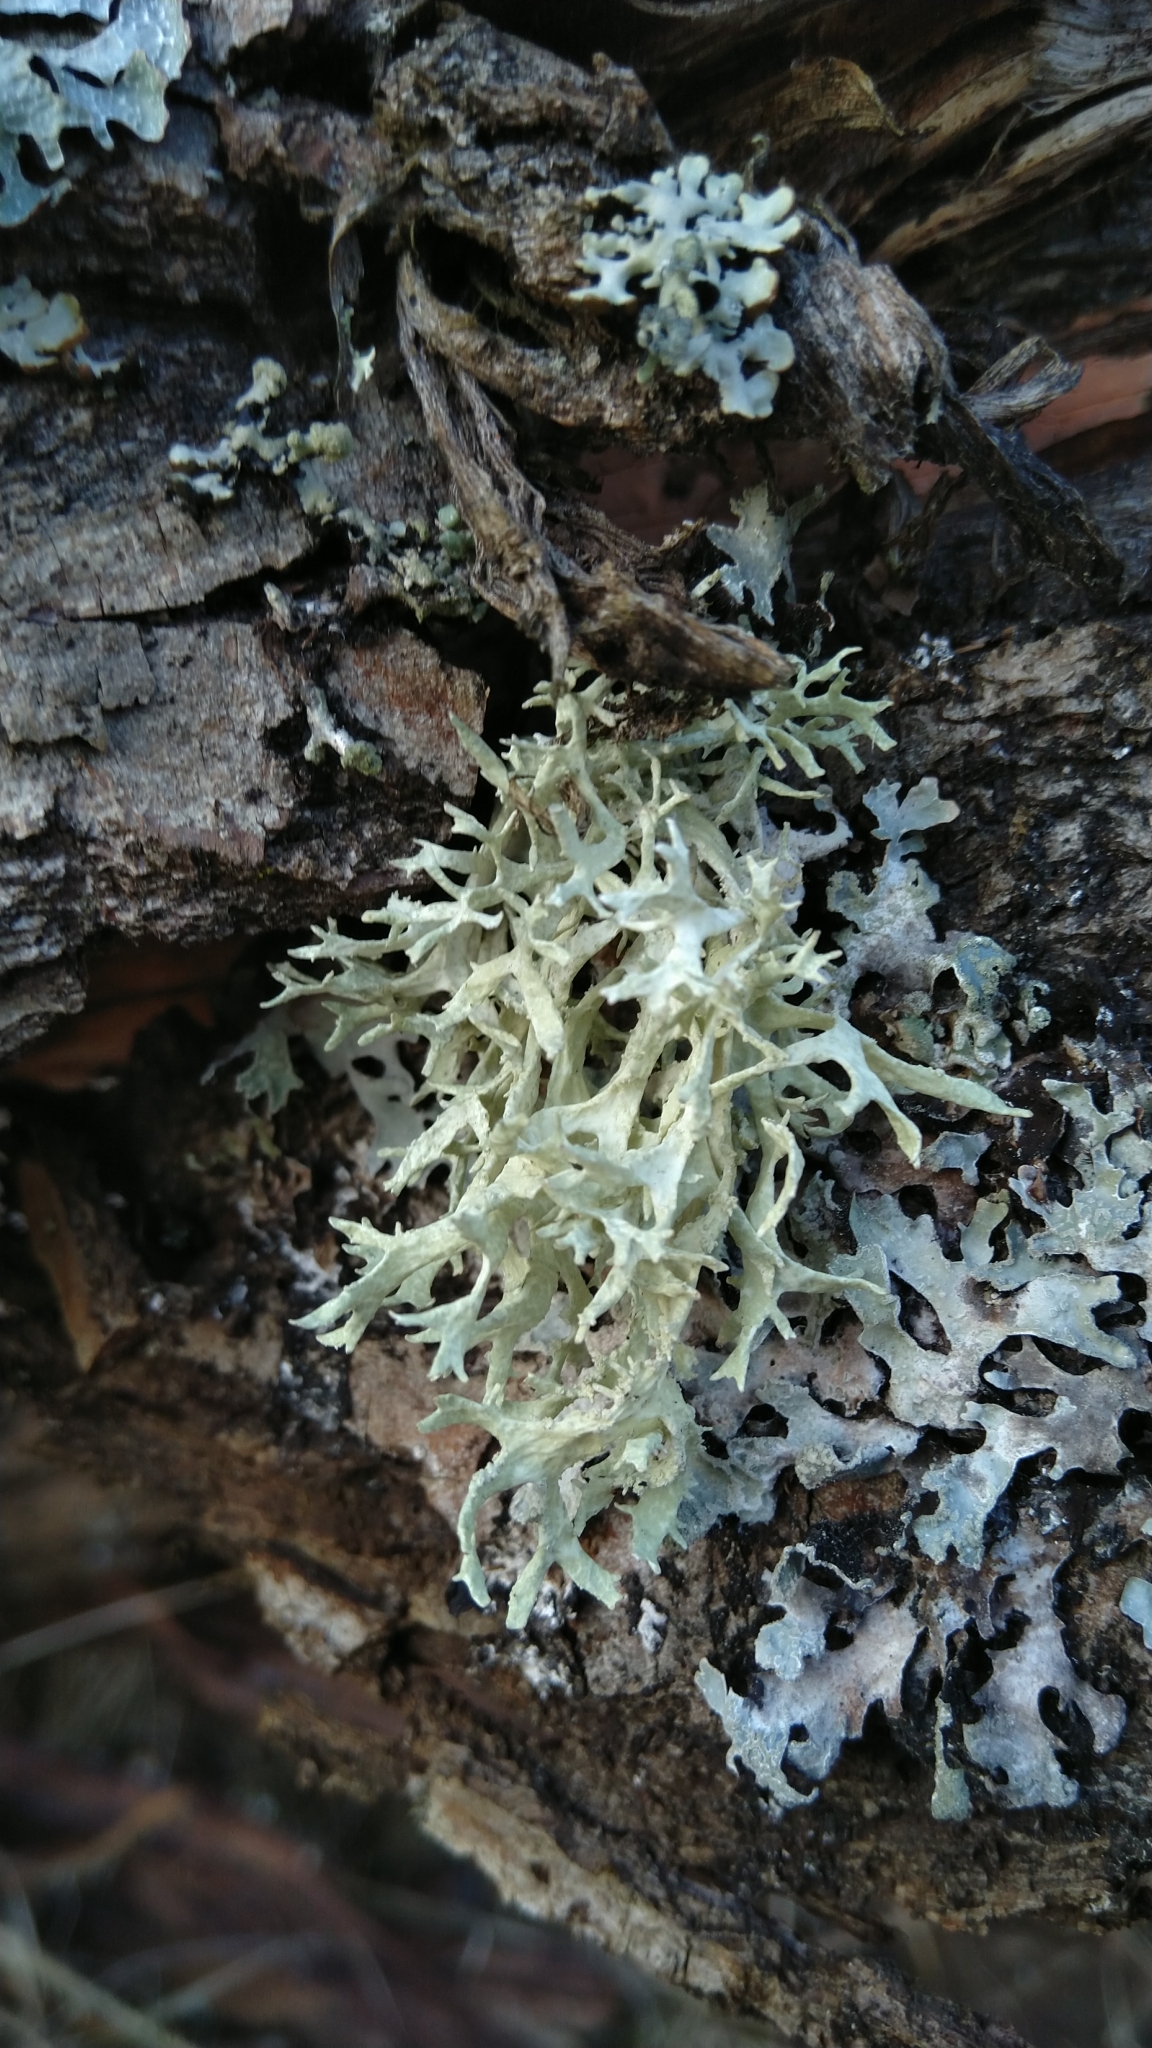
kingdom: Fungi
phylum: Ascomycota
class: Lecanoromycetes
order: Lecanorales
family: Parmeliaceae
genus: Evernia
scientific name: Evernia prunastri
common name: Oak moss
